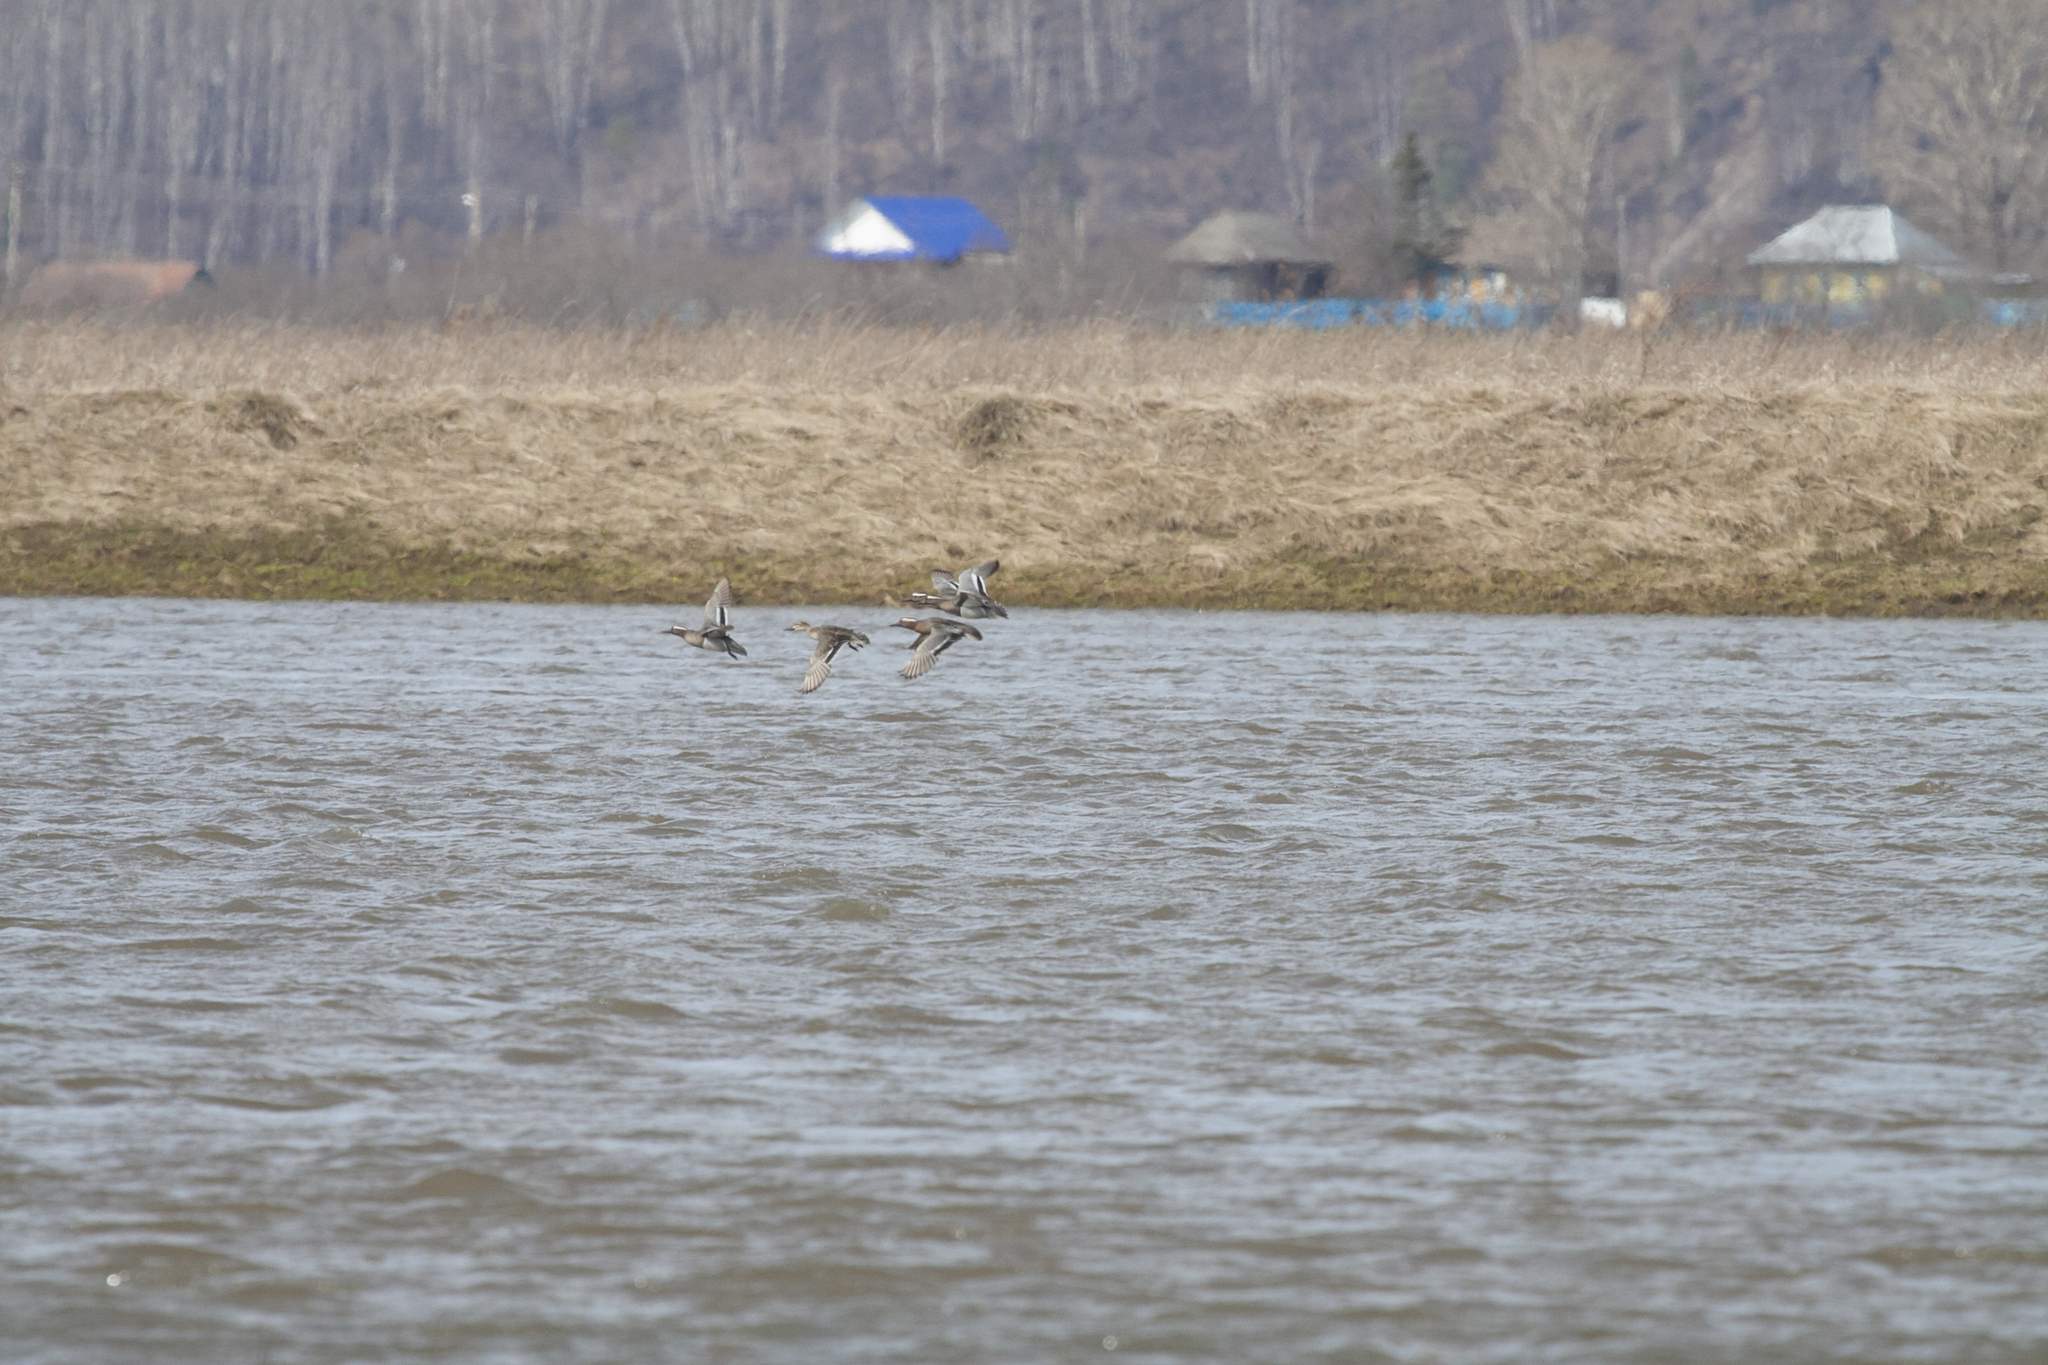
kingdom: Animalia
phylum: Chordata
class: Aves
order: Anseriformes
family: Anatidae
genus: Spatula
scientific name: Spatula querquedula
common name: Garganey
